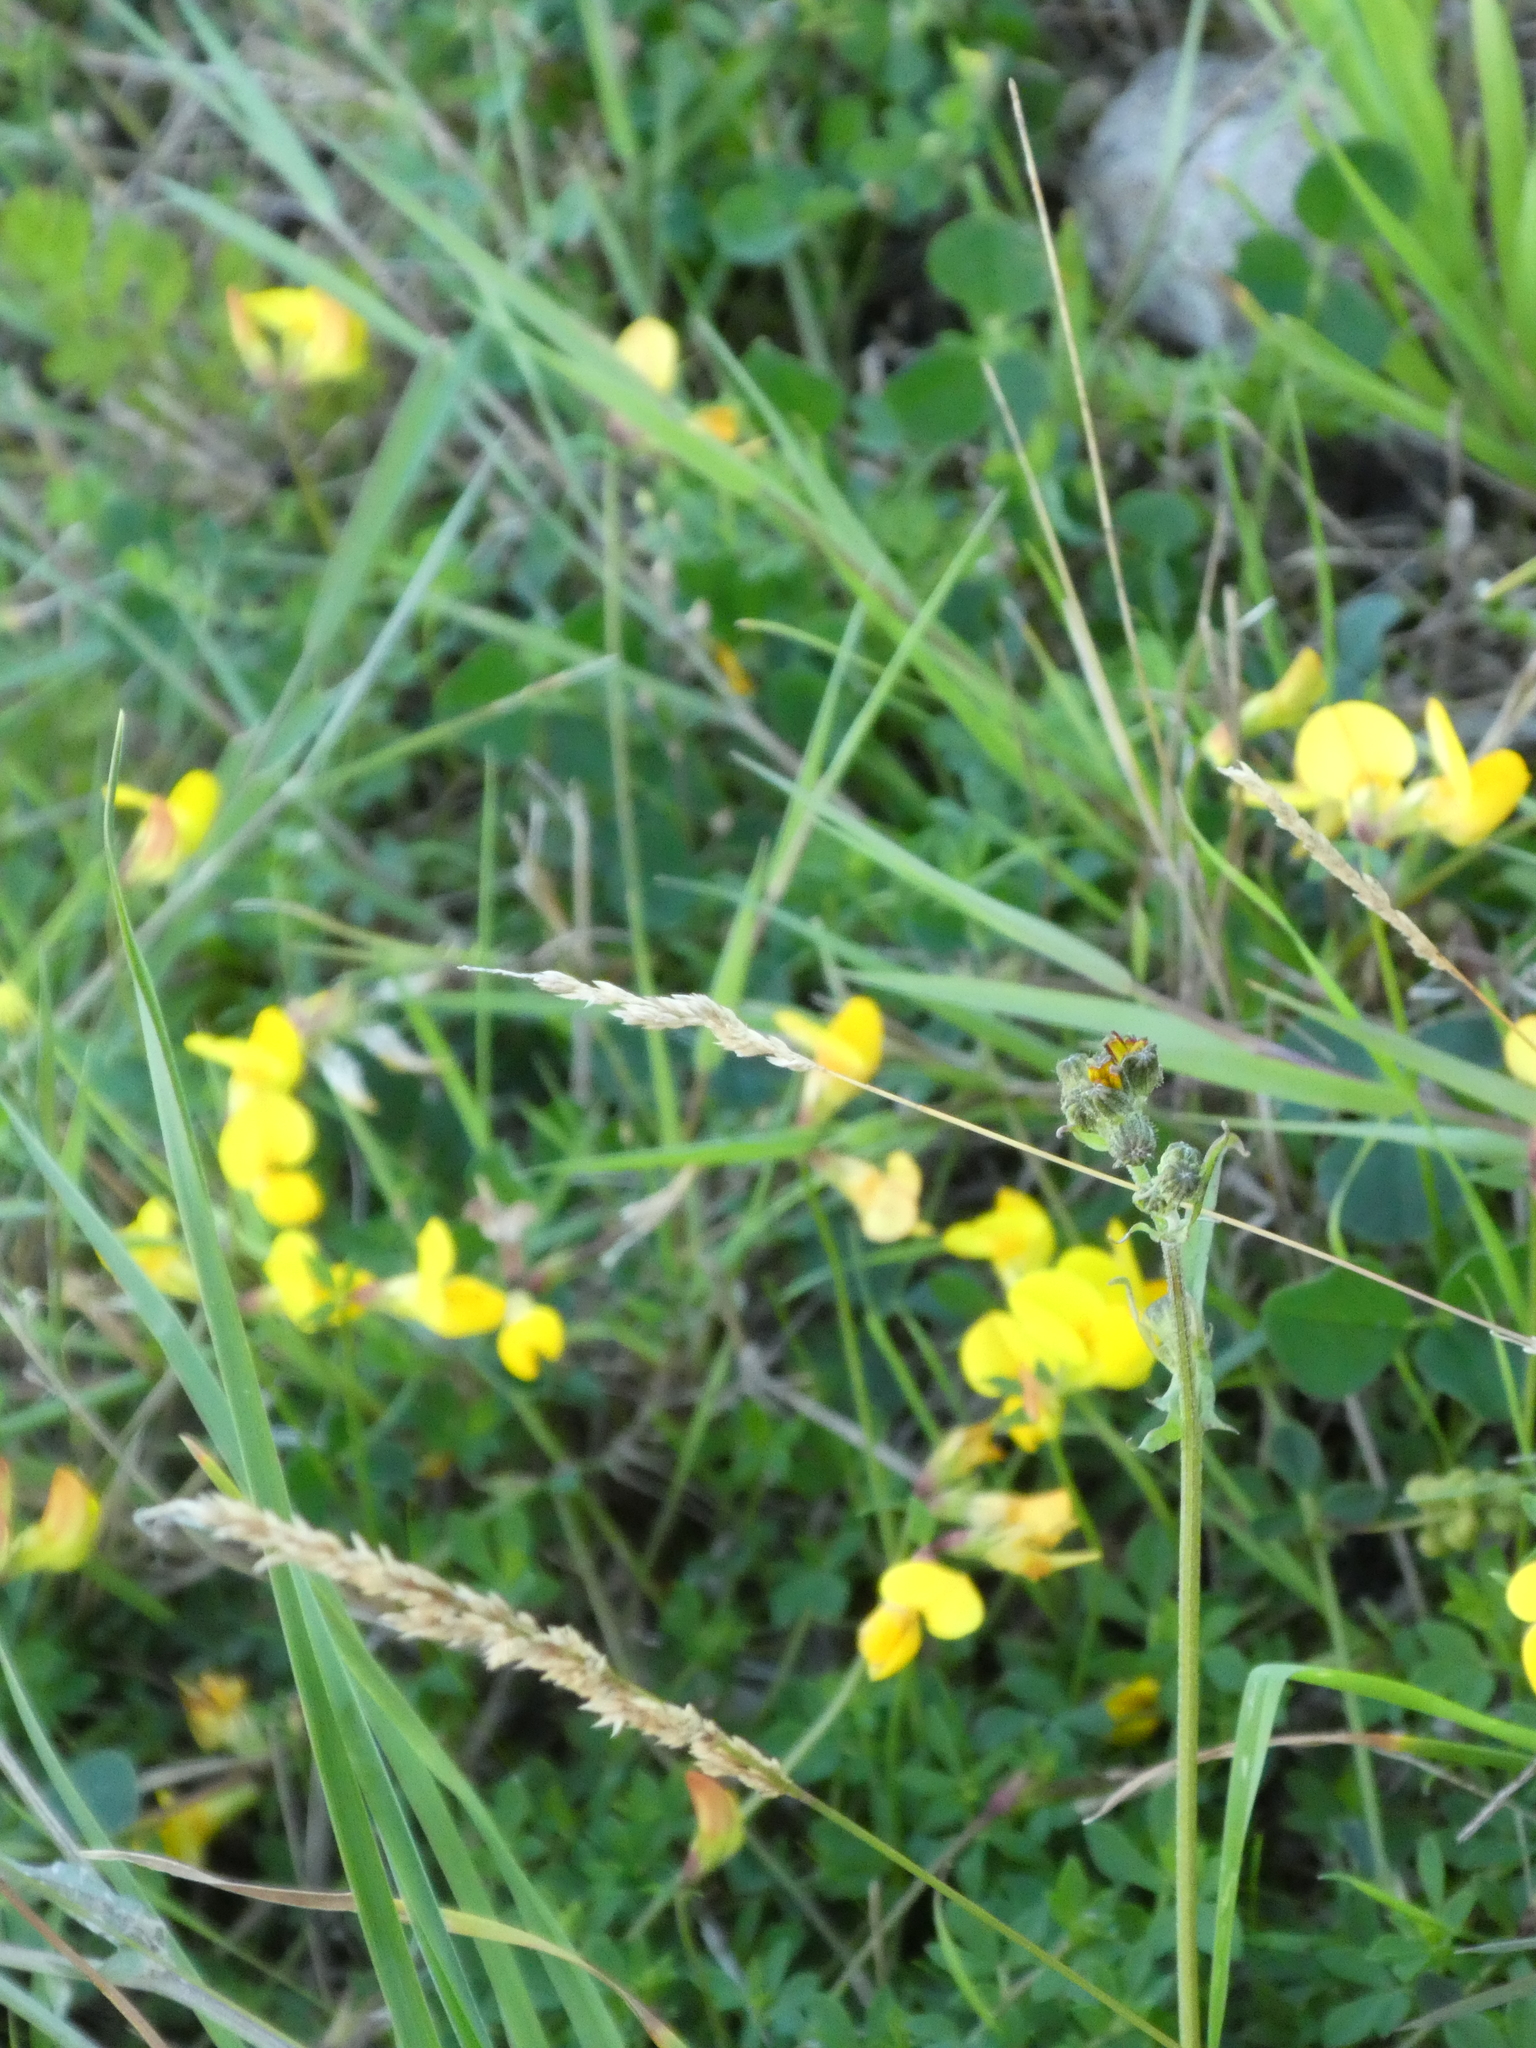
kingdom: Plantae
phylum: Tracheophyta
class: Magnoliopsida
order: Fabales
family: Fabaceae
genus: Lotus
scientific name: Lotus corniculatus
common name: Common bird's-foot-trefoil
